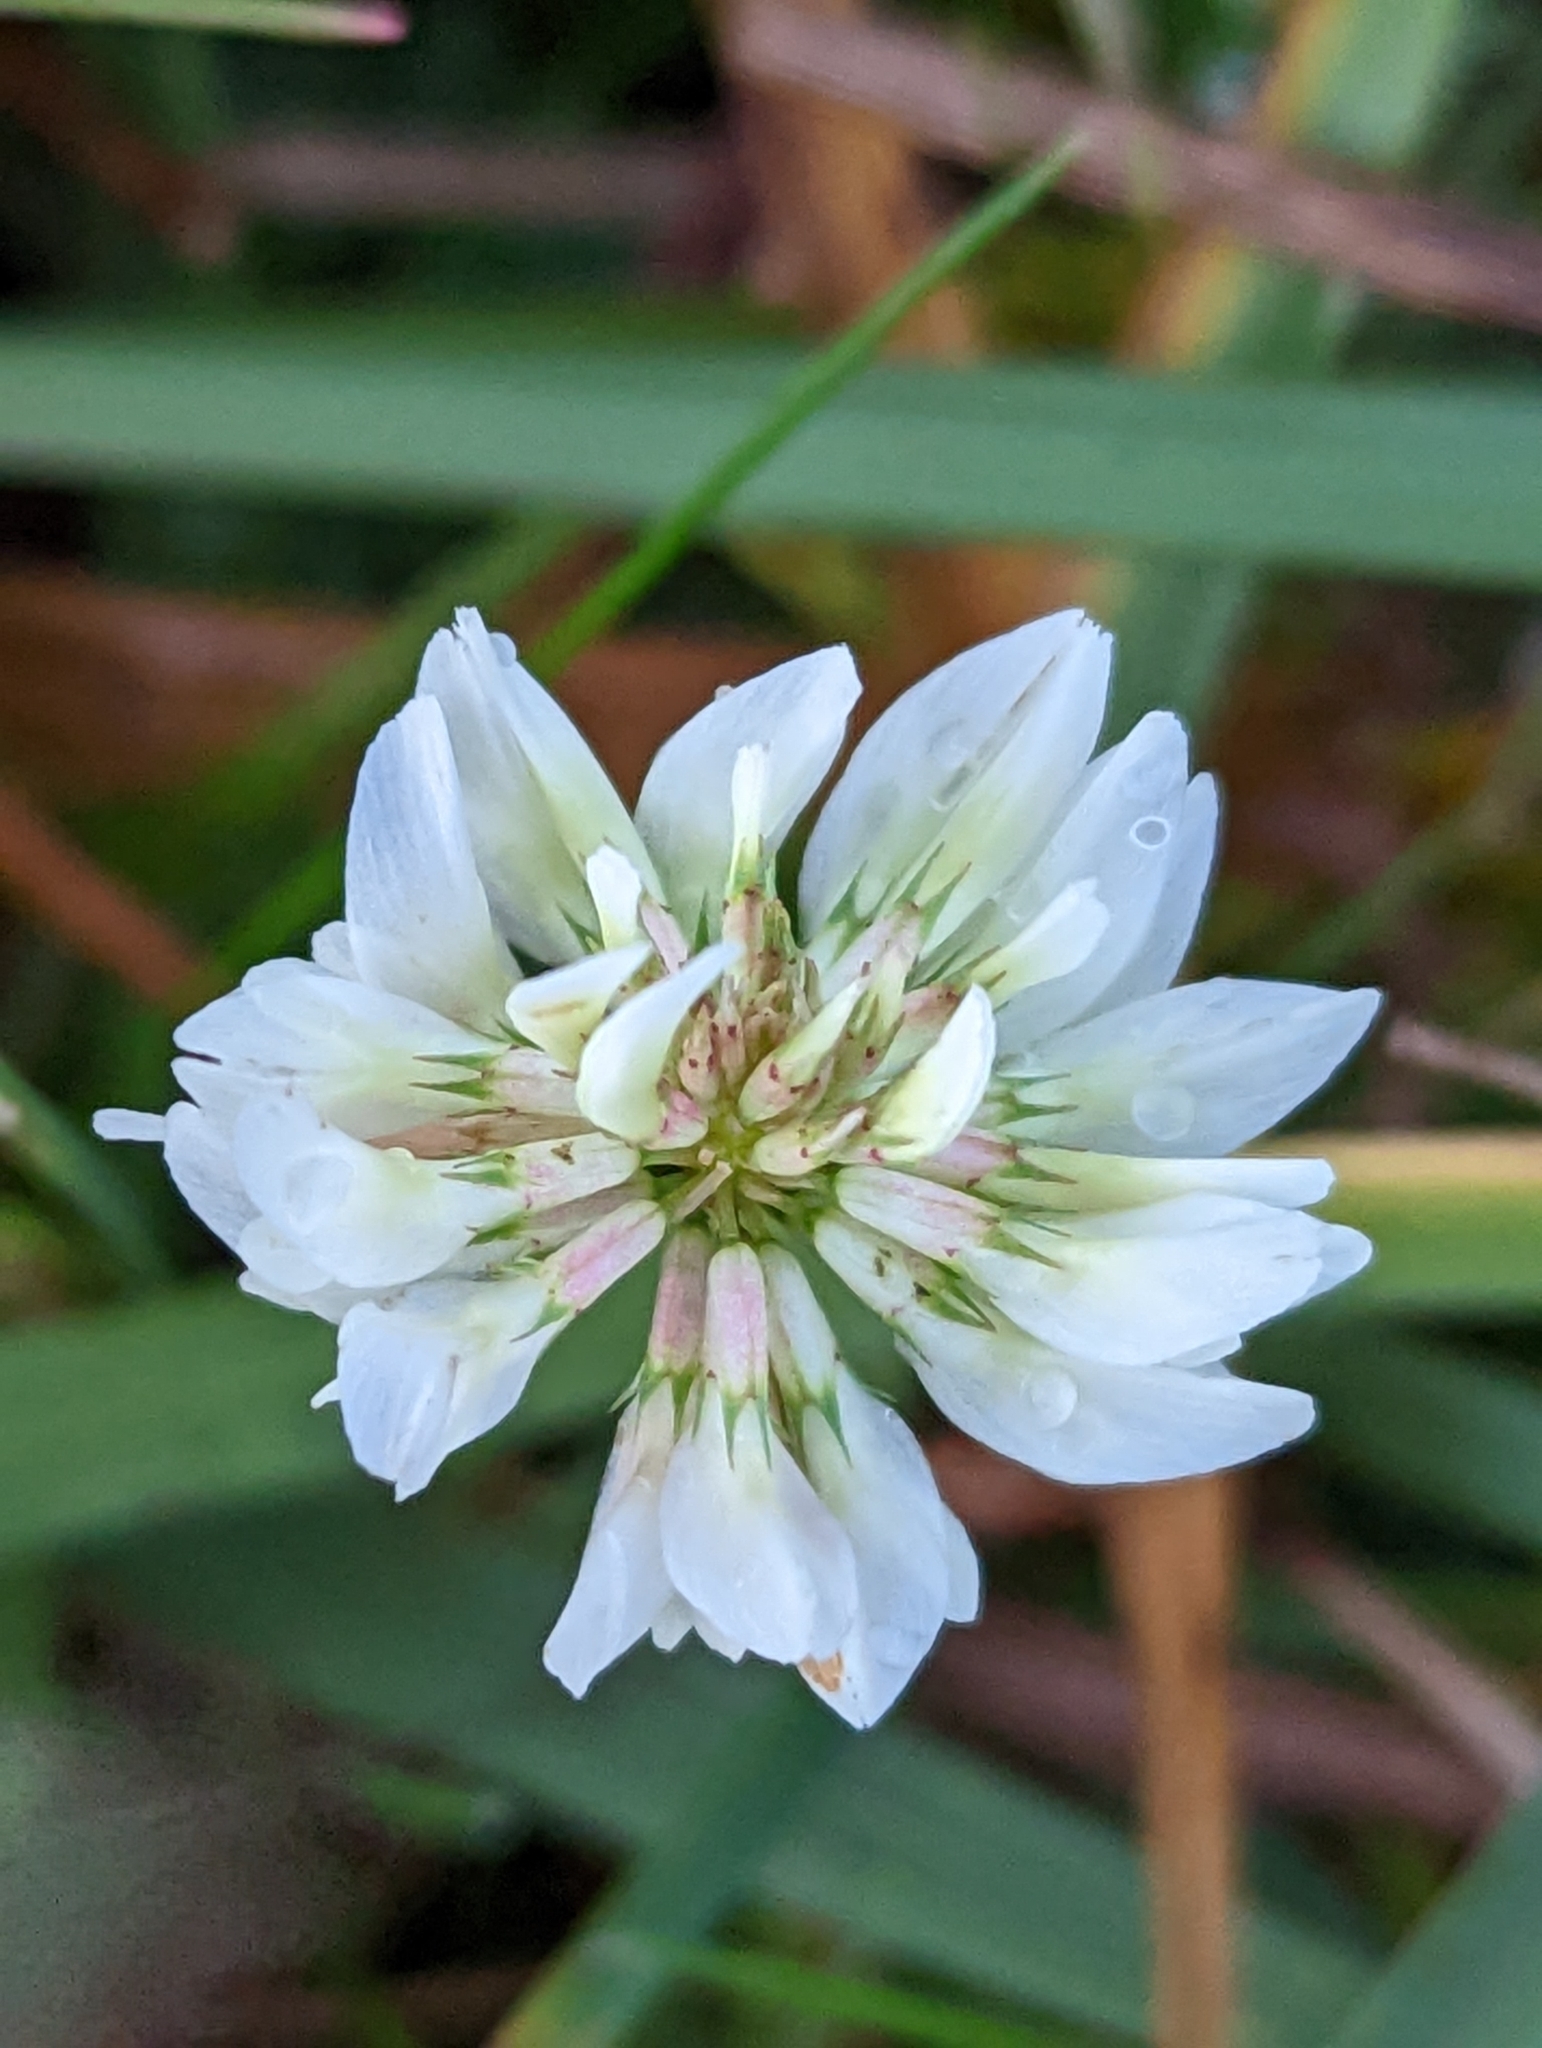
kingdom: Plantae
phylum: Tracheophyta
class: Magnoliopsida
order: Fabales
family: Fabaceae
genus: Trifolium
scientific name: Trifolium repens
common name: White clover
